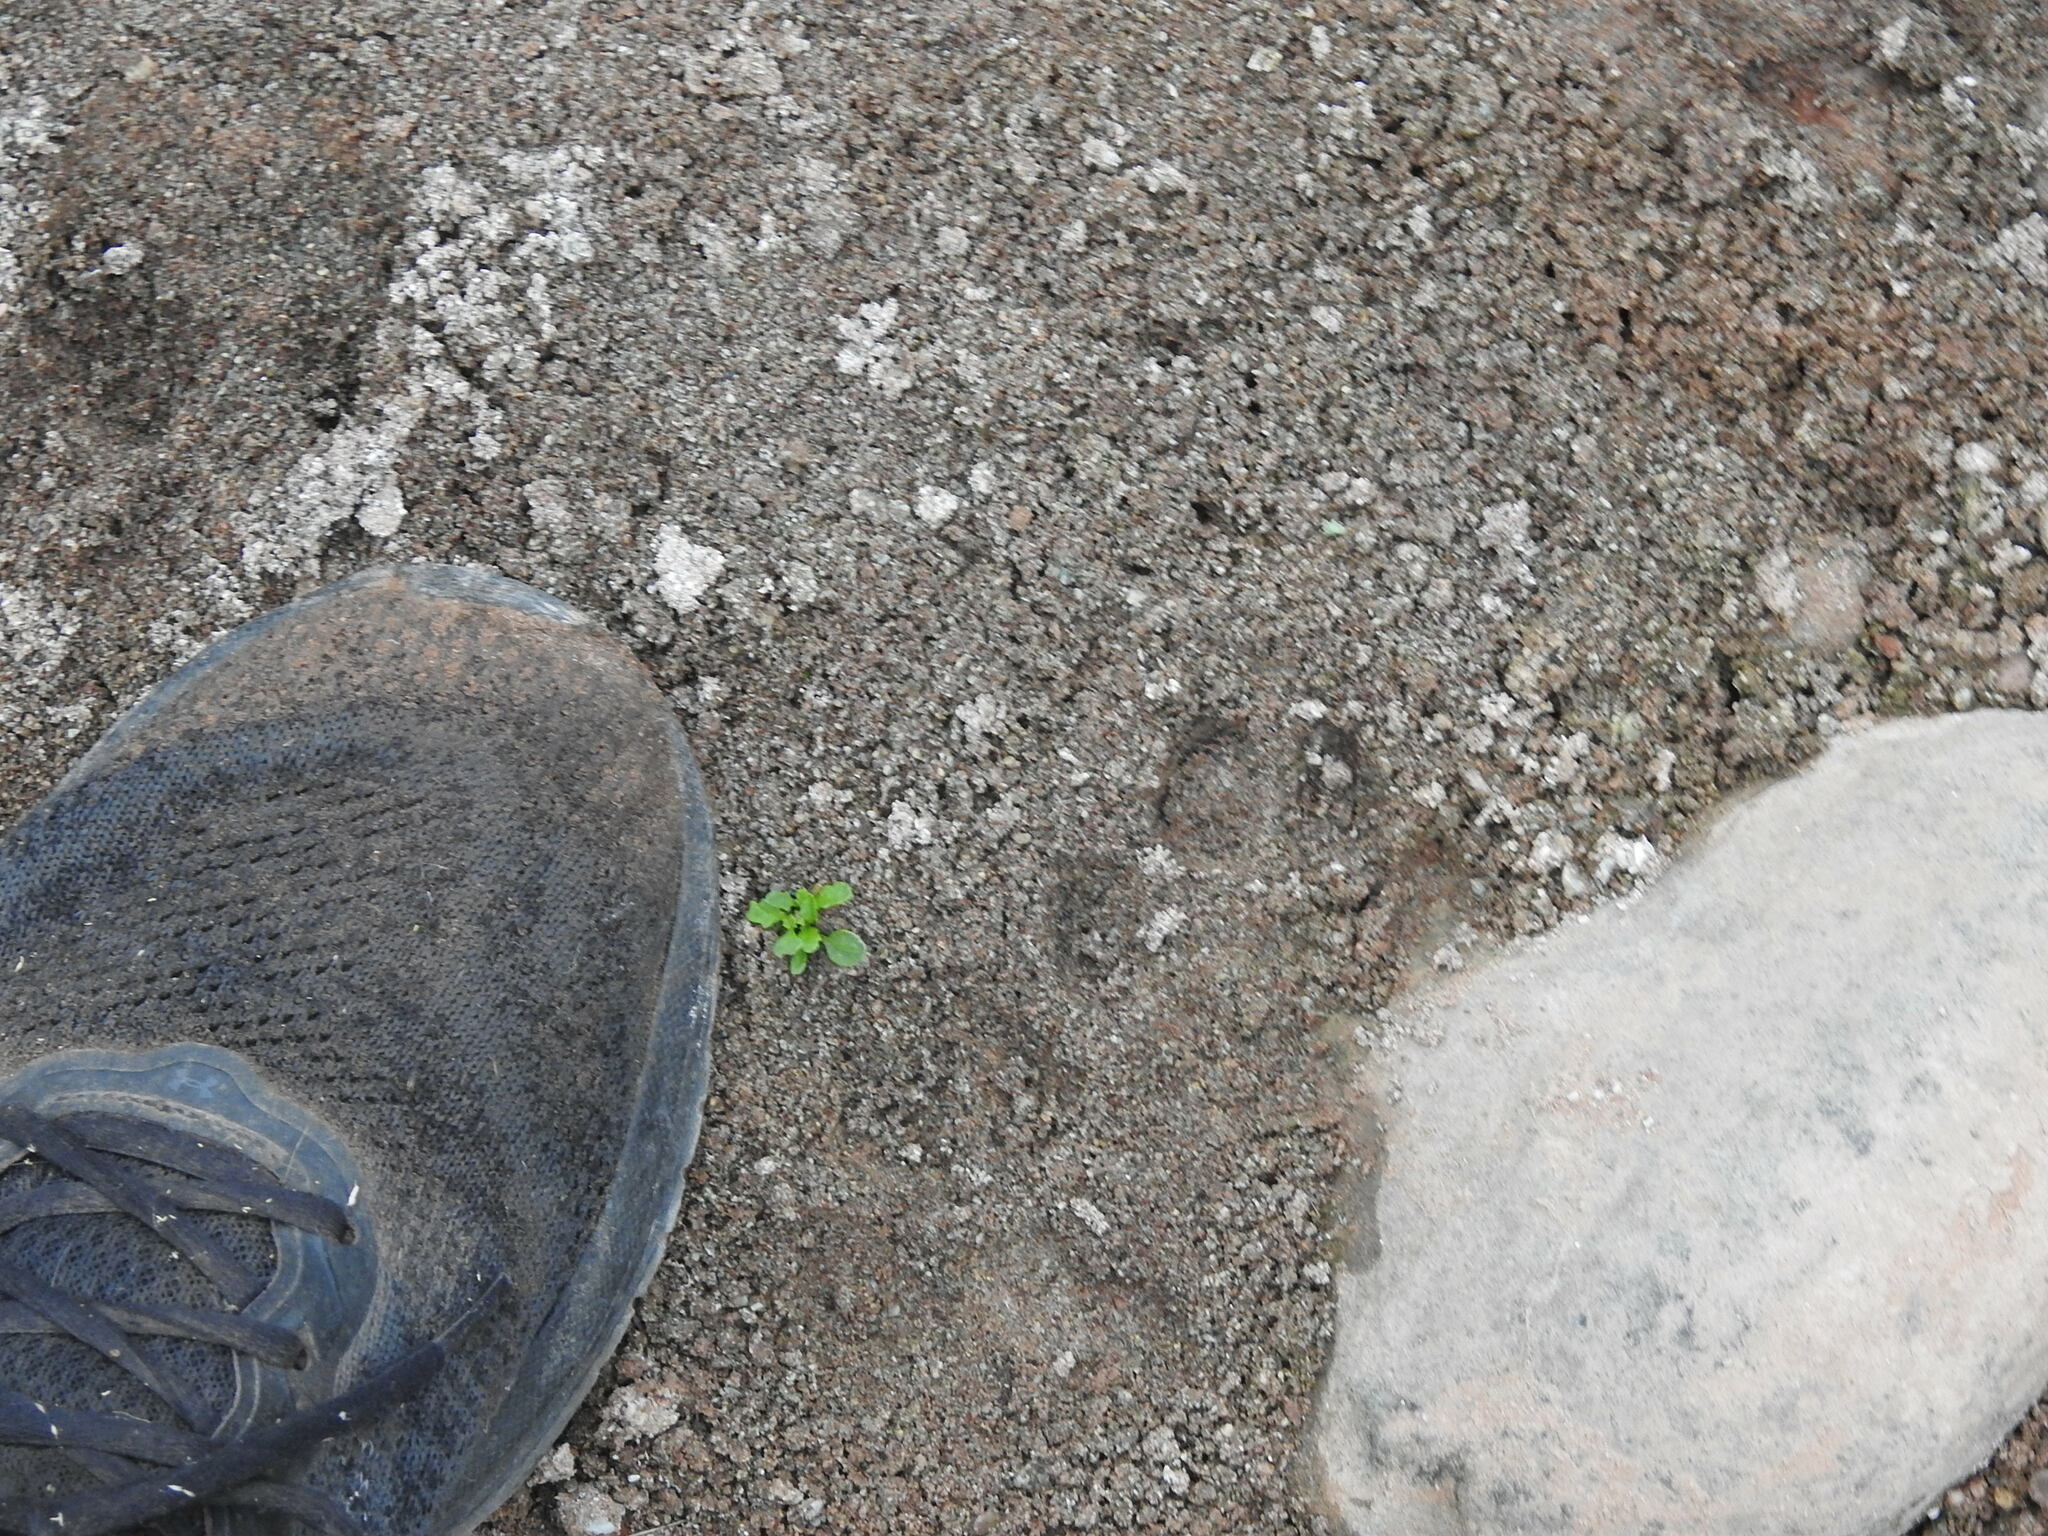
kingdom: Animalia
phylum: Chordata
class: Mammalia
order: Carnivora
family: Felidae
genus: Puma
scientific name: Puma concolor
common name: Puma
